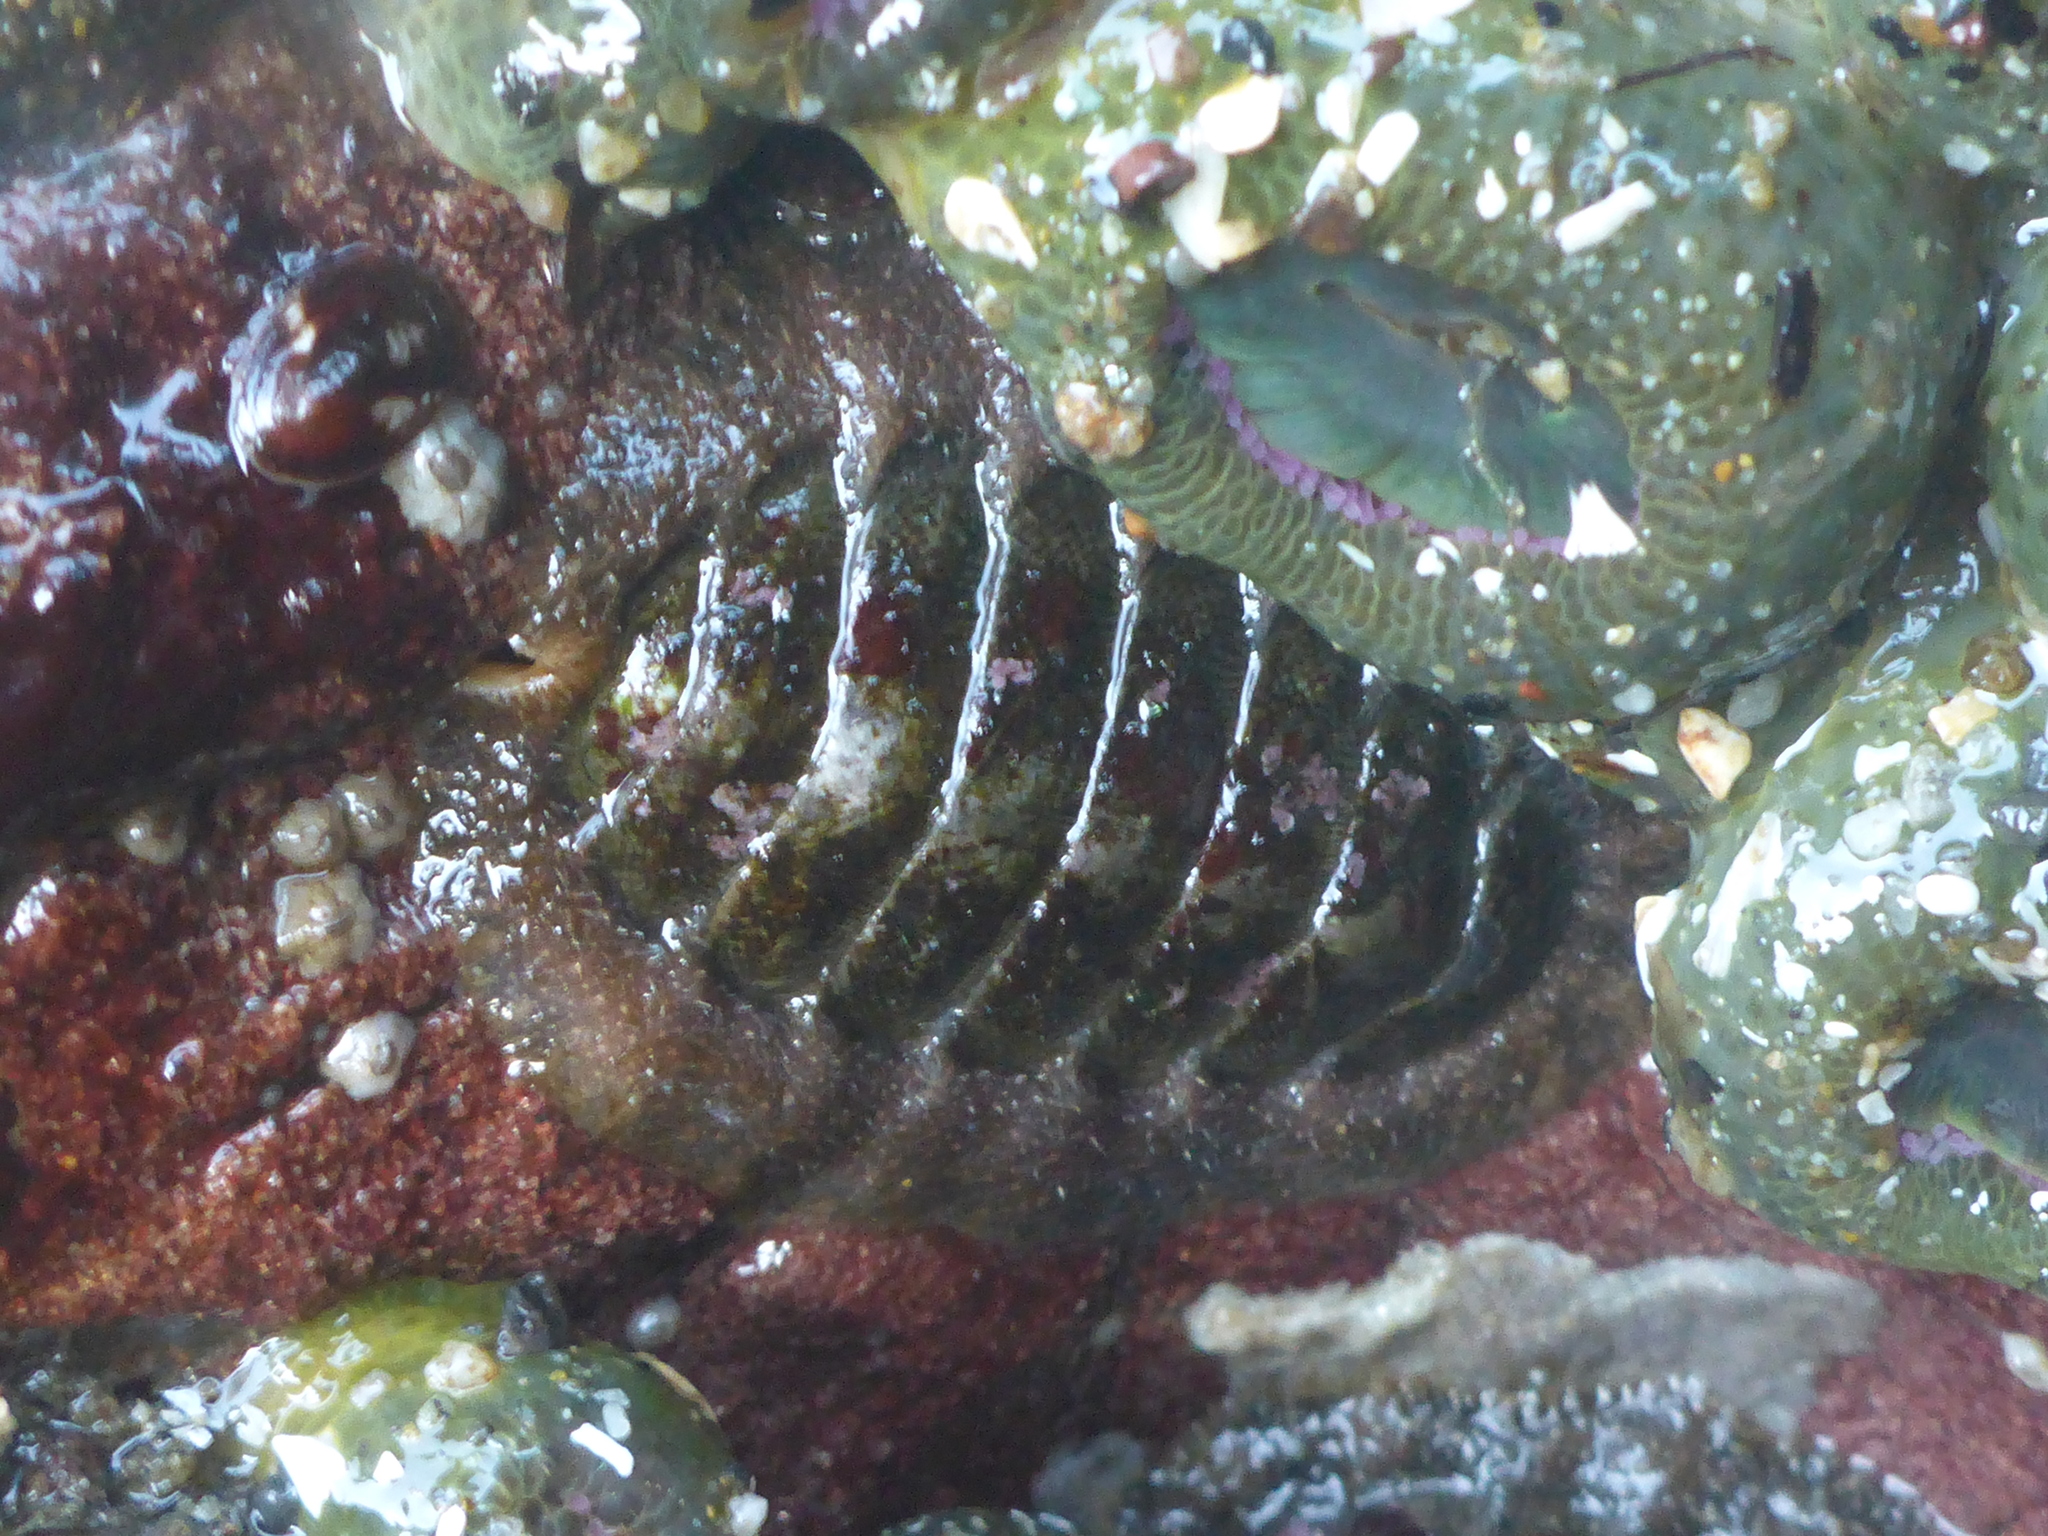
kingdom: Animalia
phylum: Mollusca
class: Polyplacophora
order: Chitonida
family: Mopaliidae
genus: Mopalia
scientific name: Mopalia hindsii
